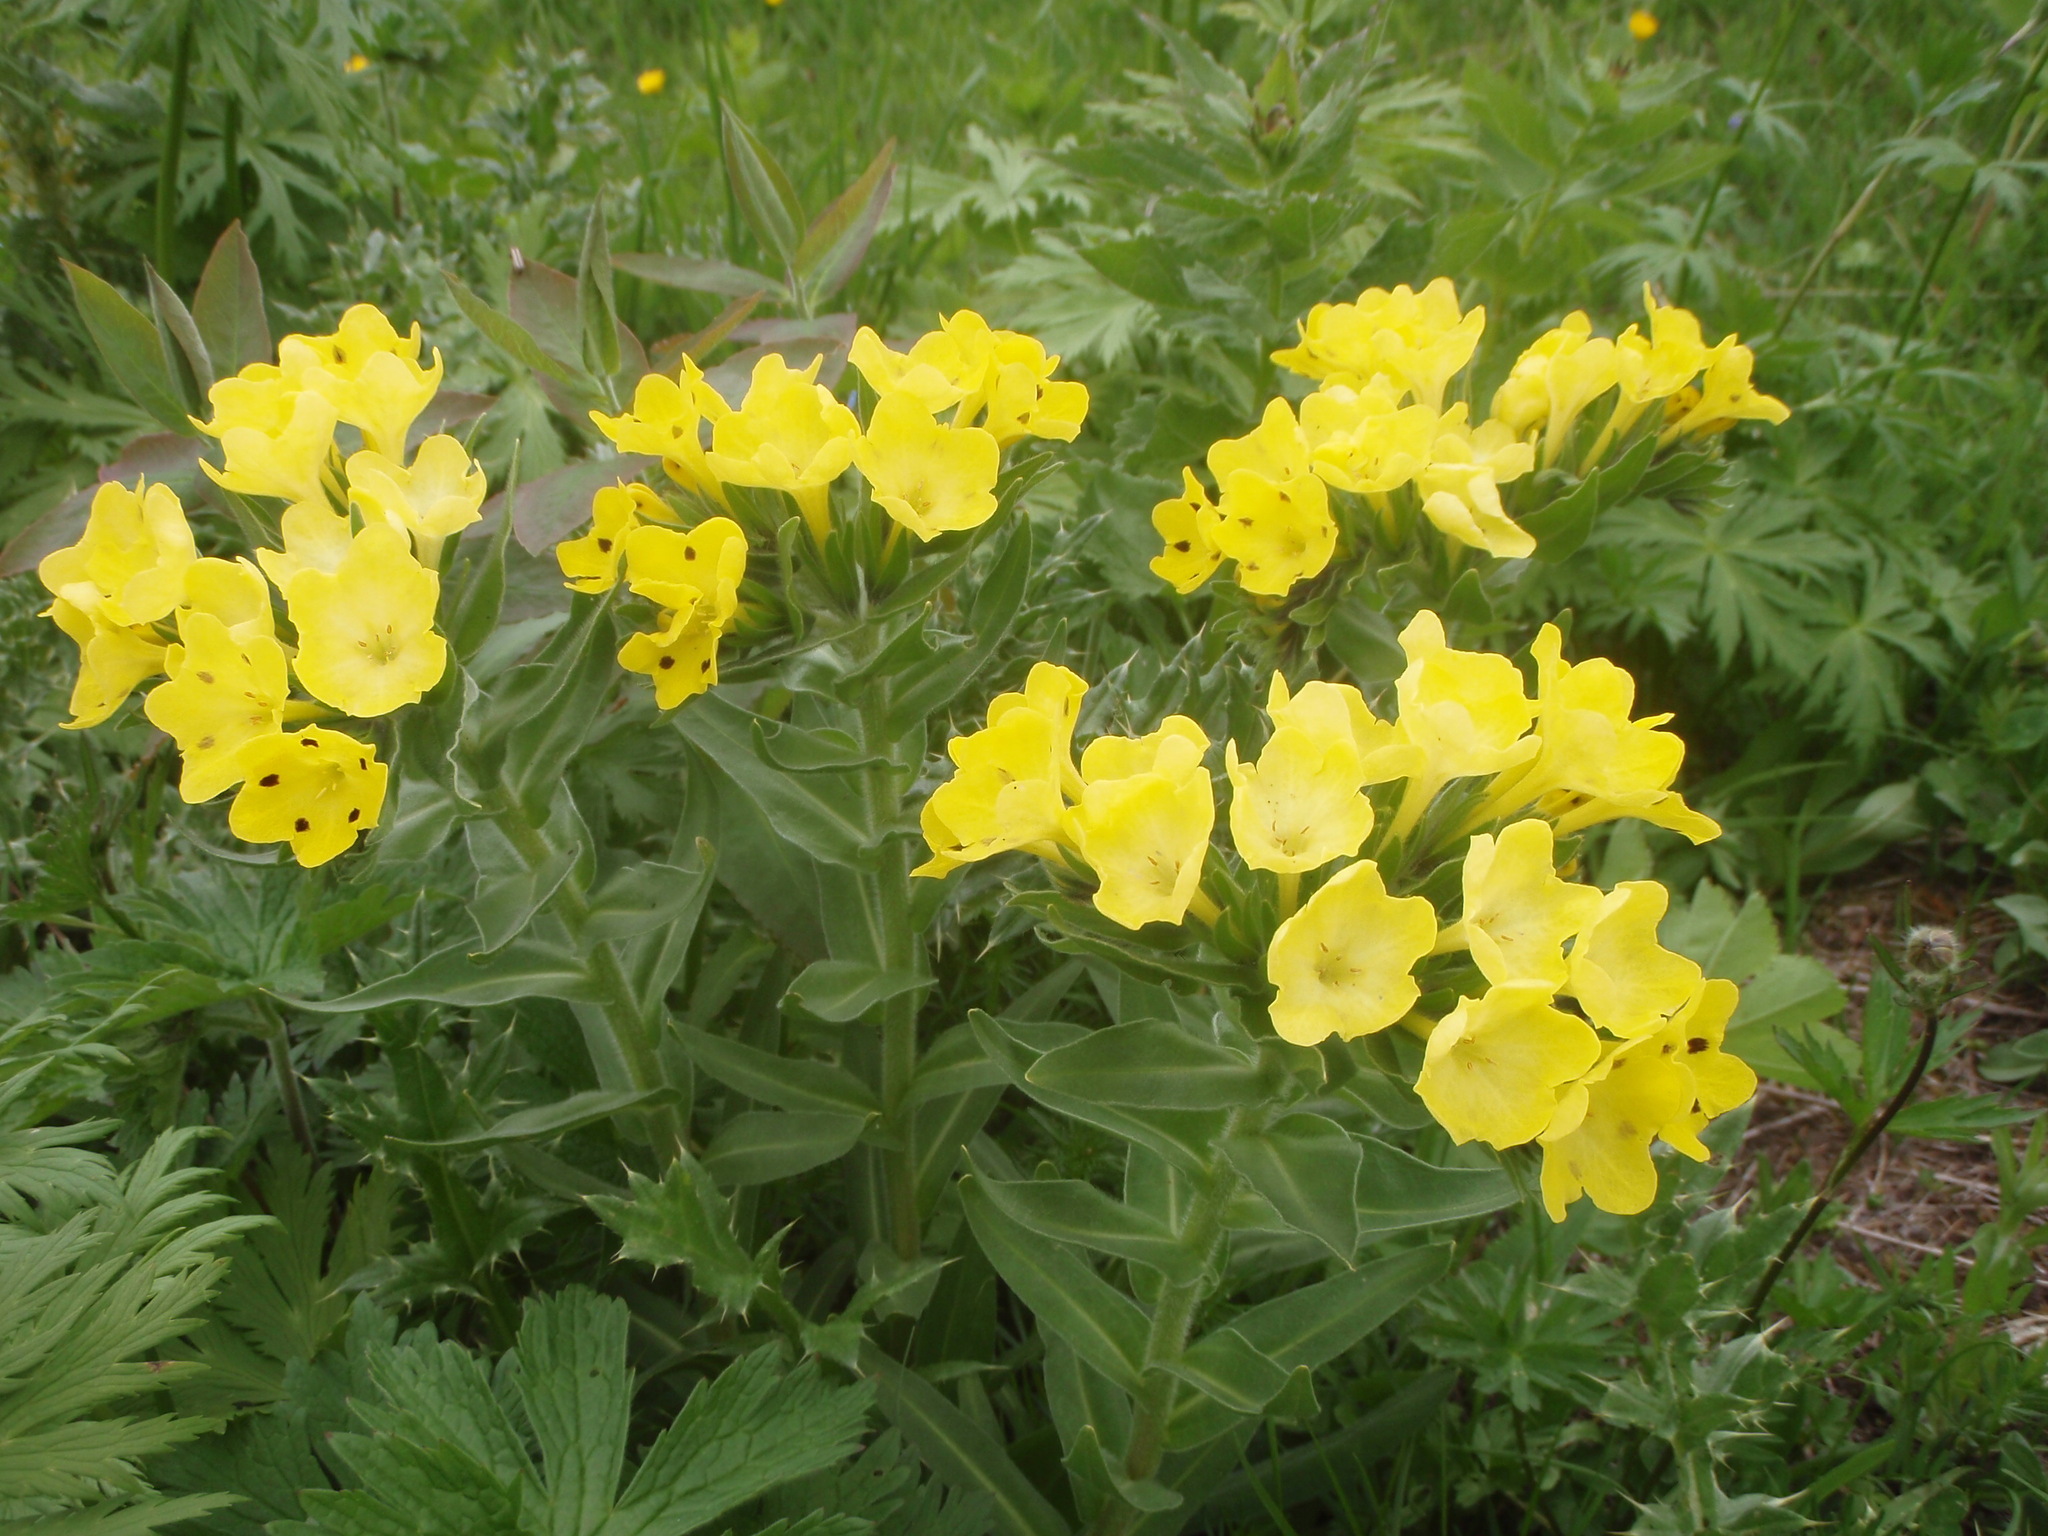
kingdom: Plantae
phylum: Tracheophyta
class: Magnoliopsida
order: Boraginales
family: Boraginaceae
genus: Huynhia
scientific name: Huynhia pulchra
